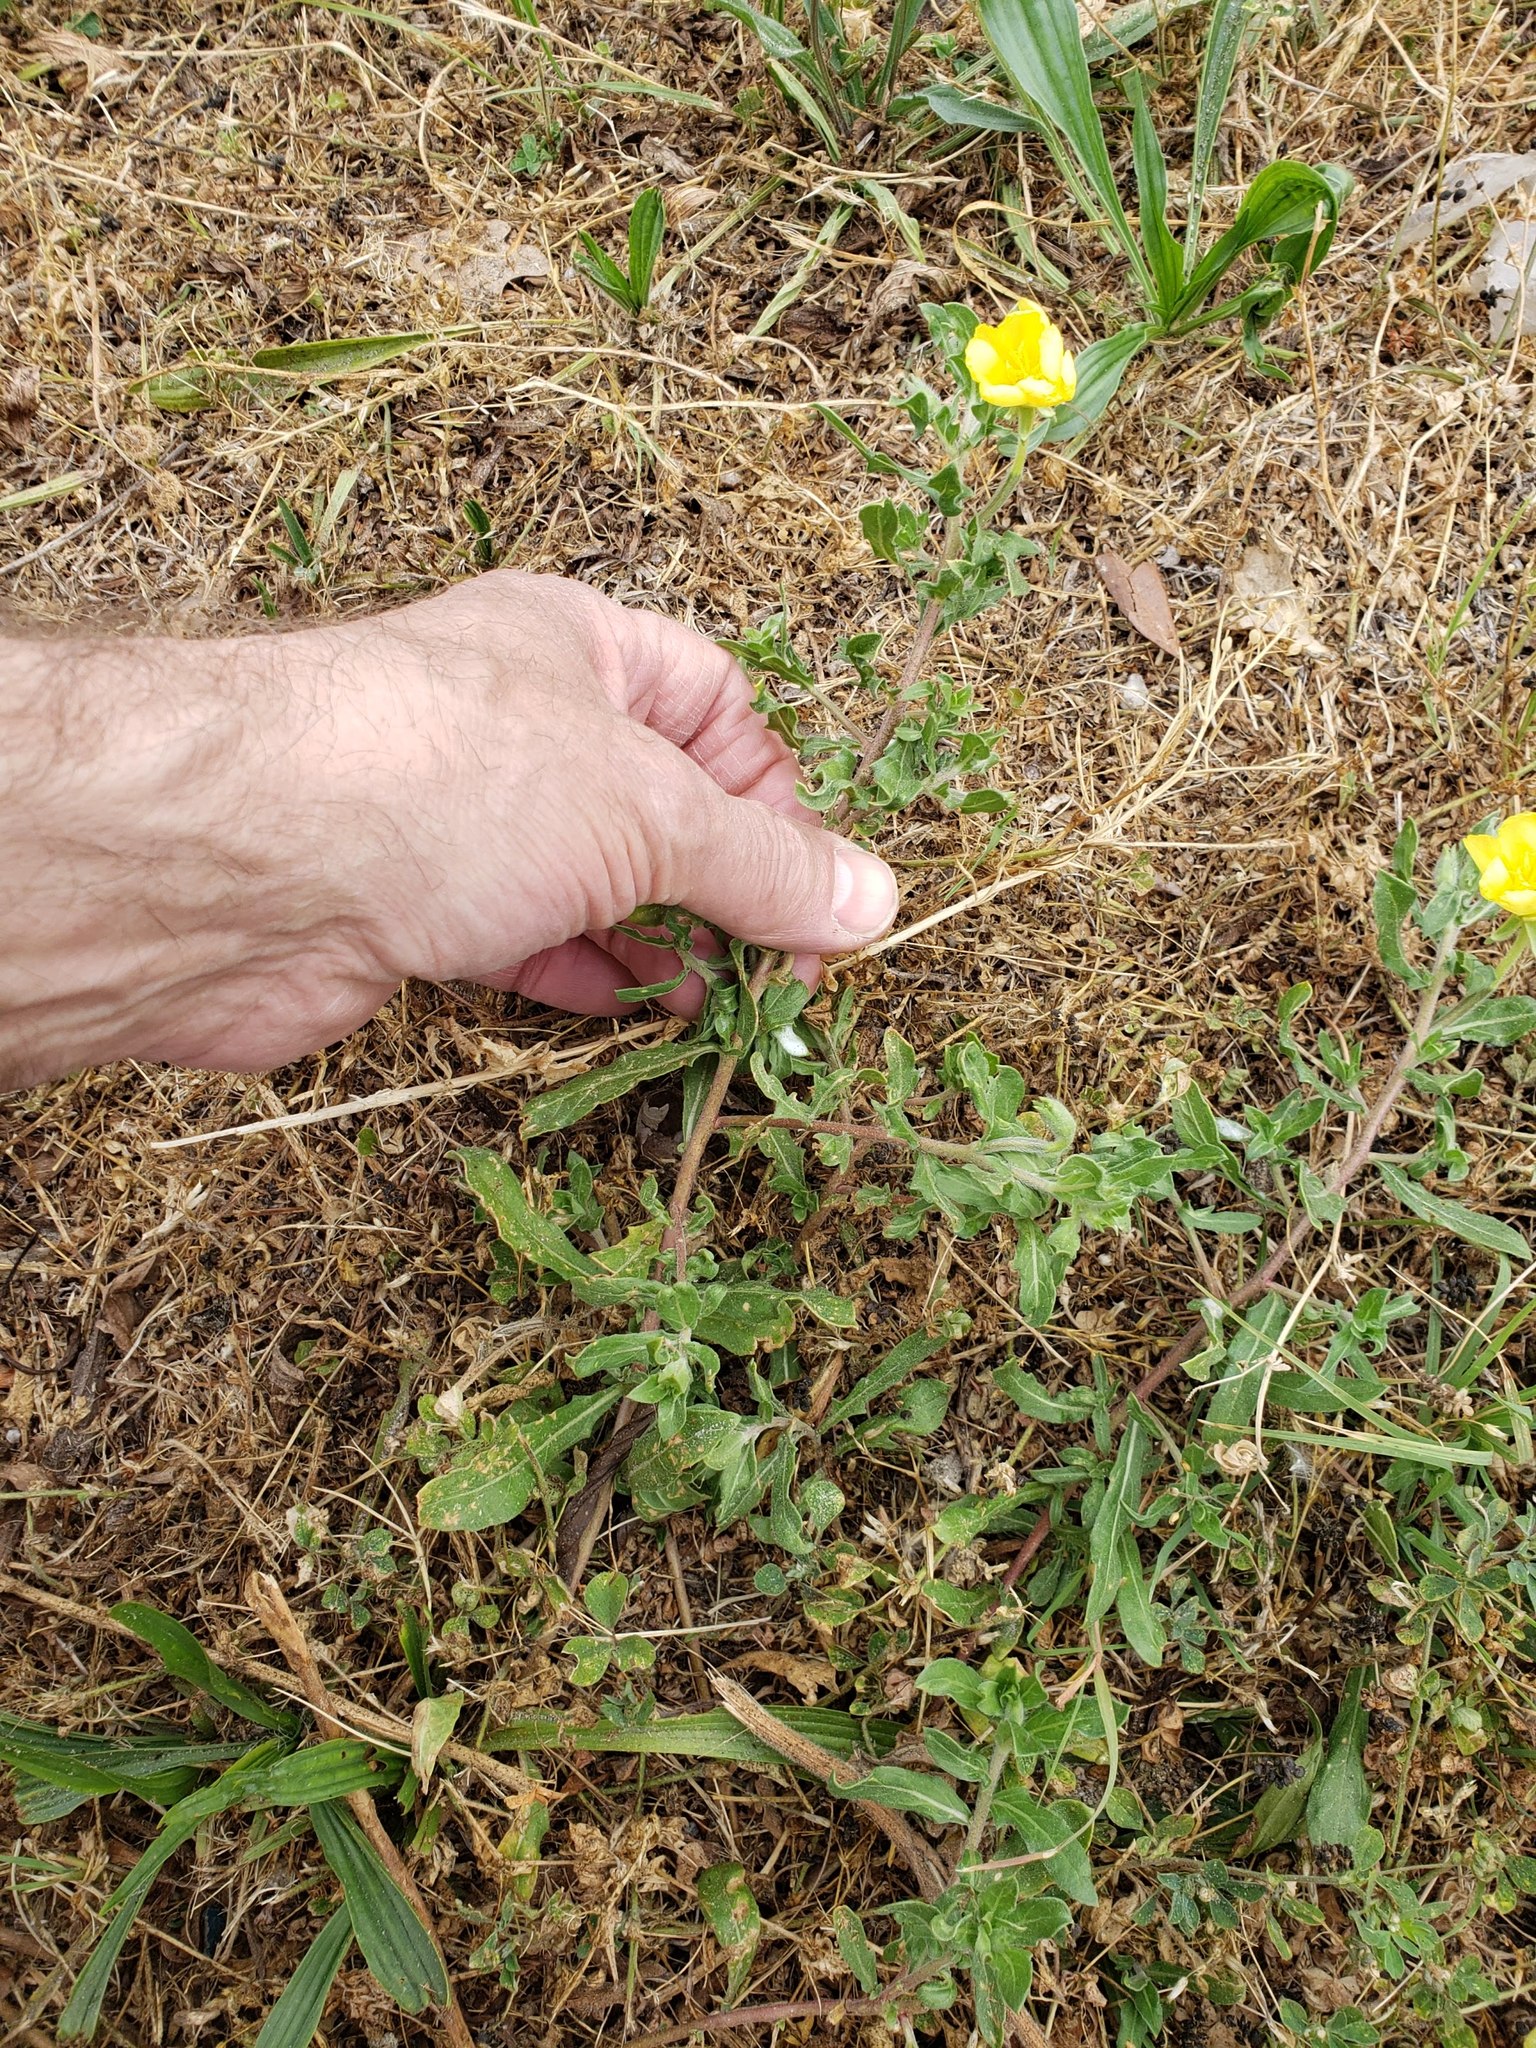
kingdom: Plantae
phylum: Tracheophyta
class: Magnoliopsida
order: Myrtales
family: Onagraceae
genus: Oenothera
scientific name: Oenothera laciniata
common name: Cut-leaved evening-primrose
